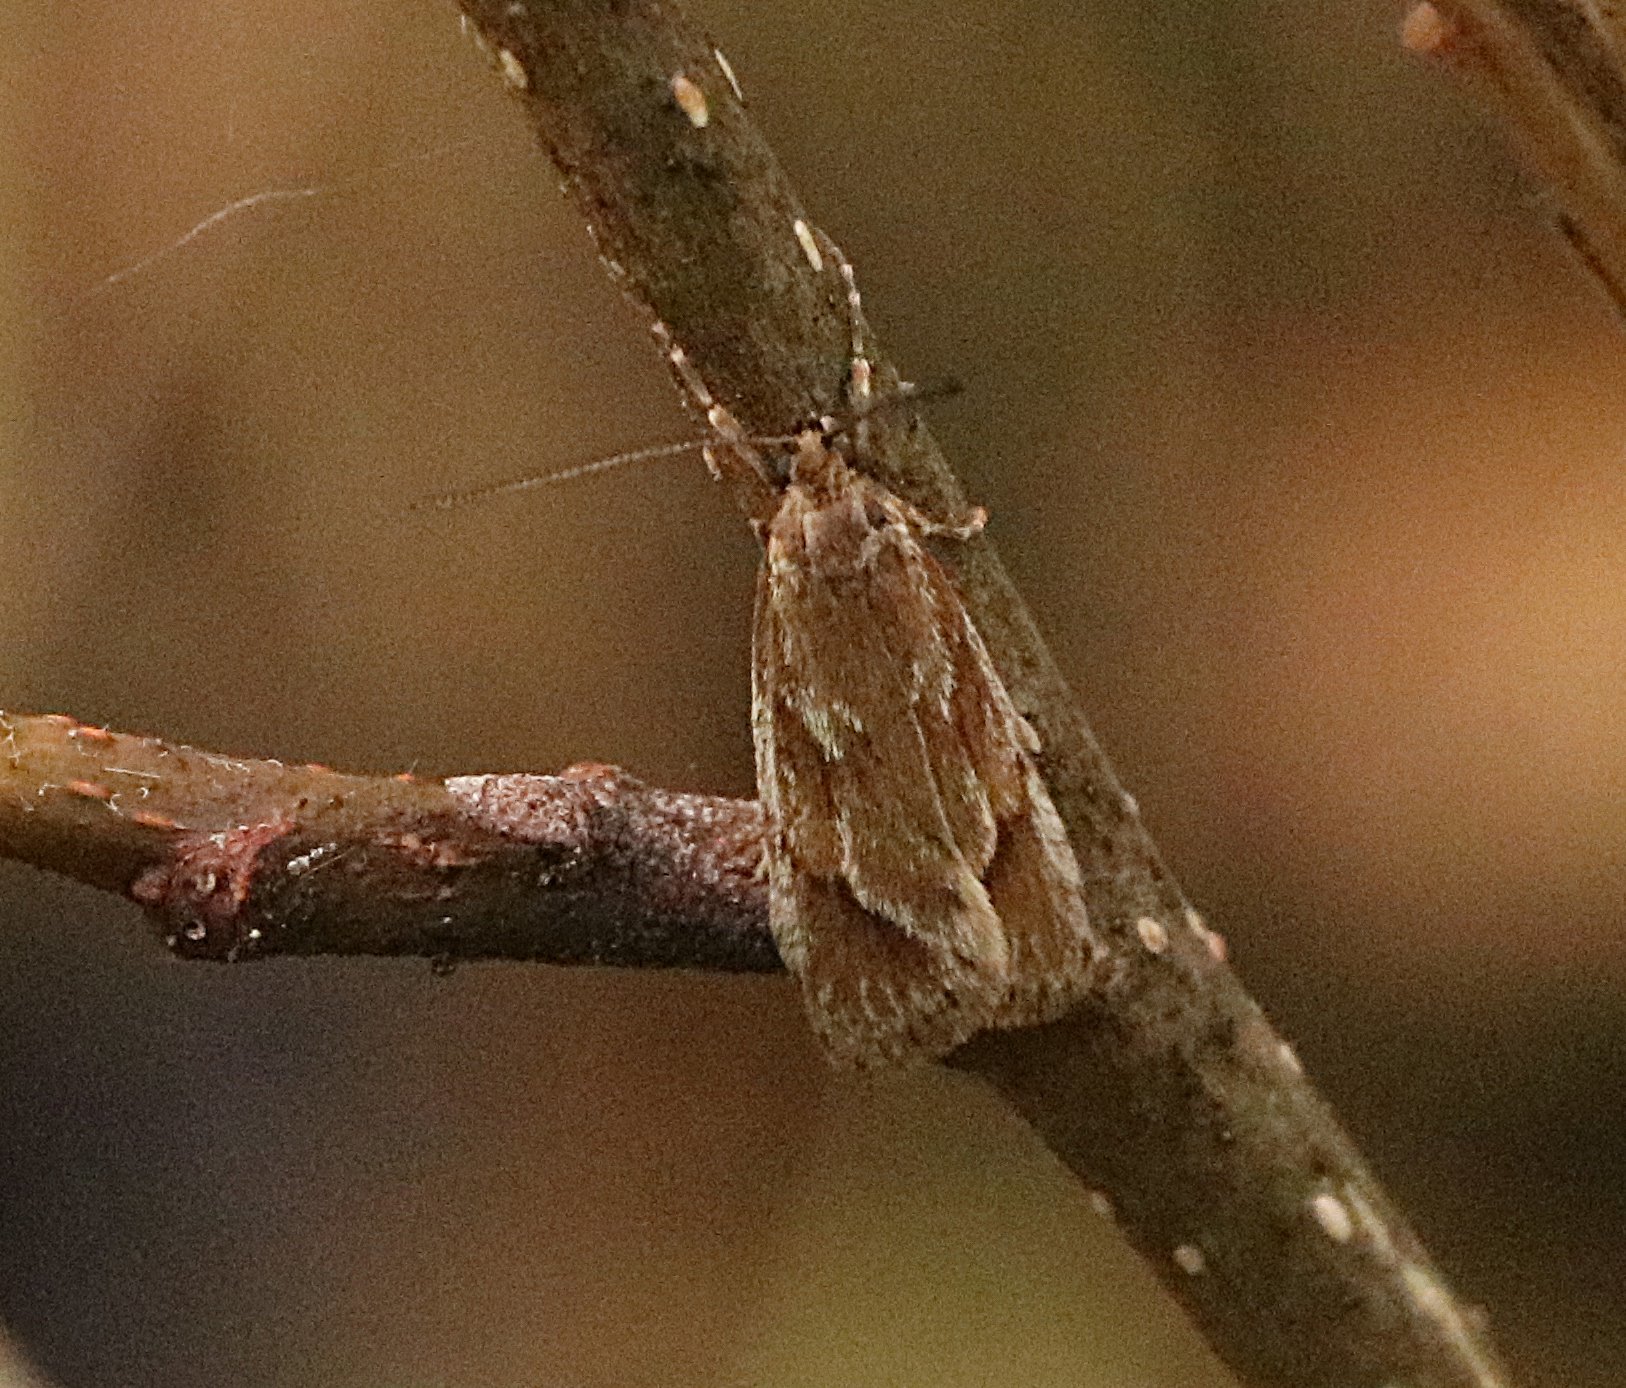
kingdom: Animalia
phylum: Arthropoda
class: Insecta
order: Lepidoptera
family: Lypusidae
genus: Diurnea
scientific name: Diurnea lipsiella
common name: November tubic
